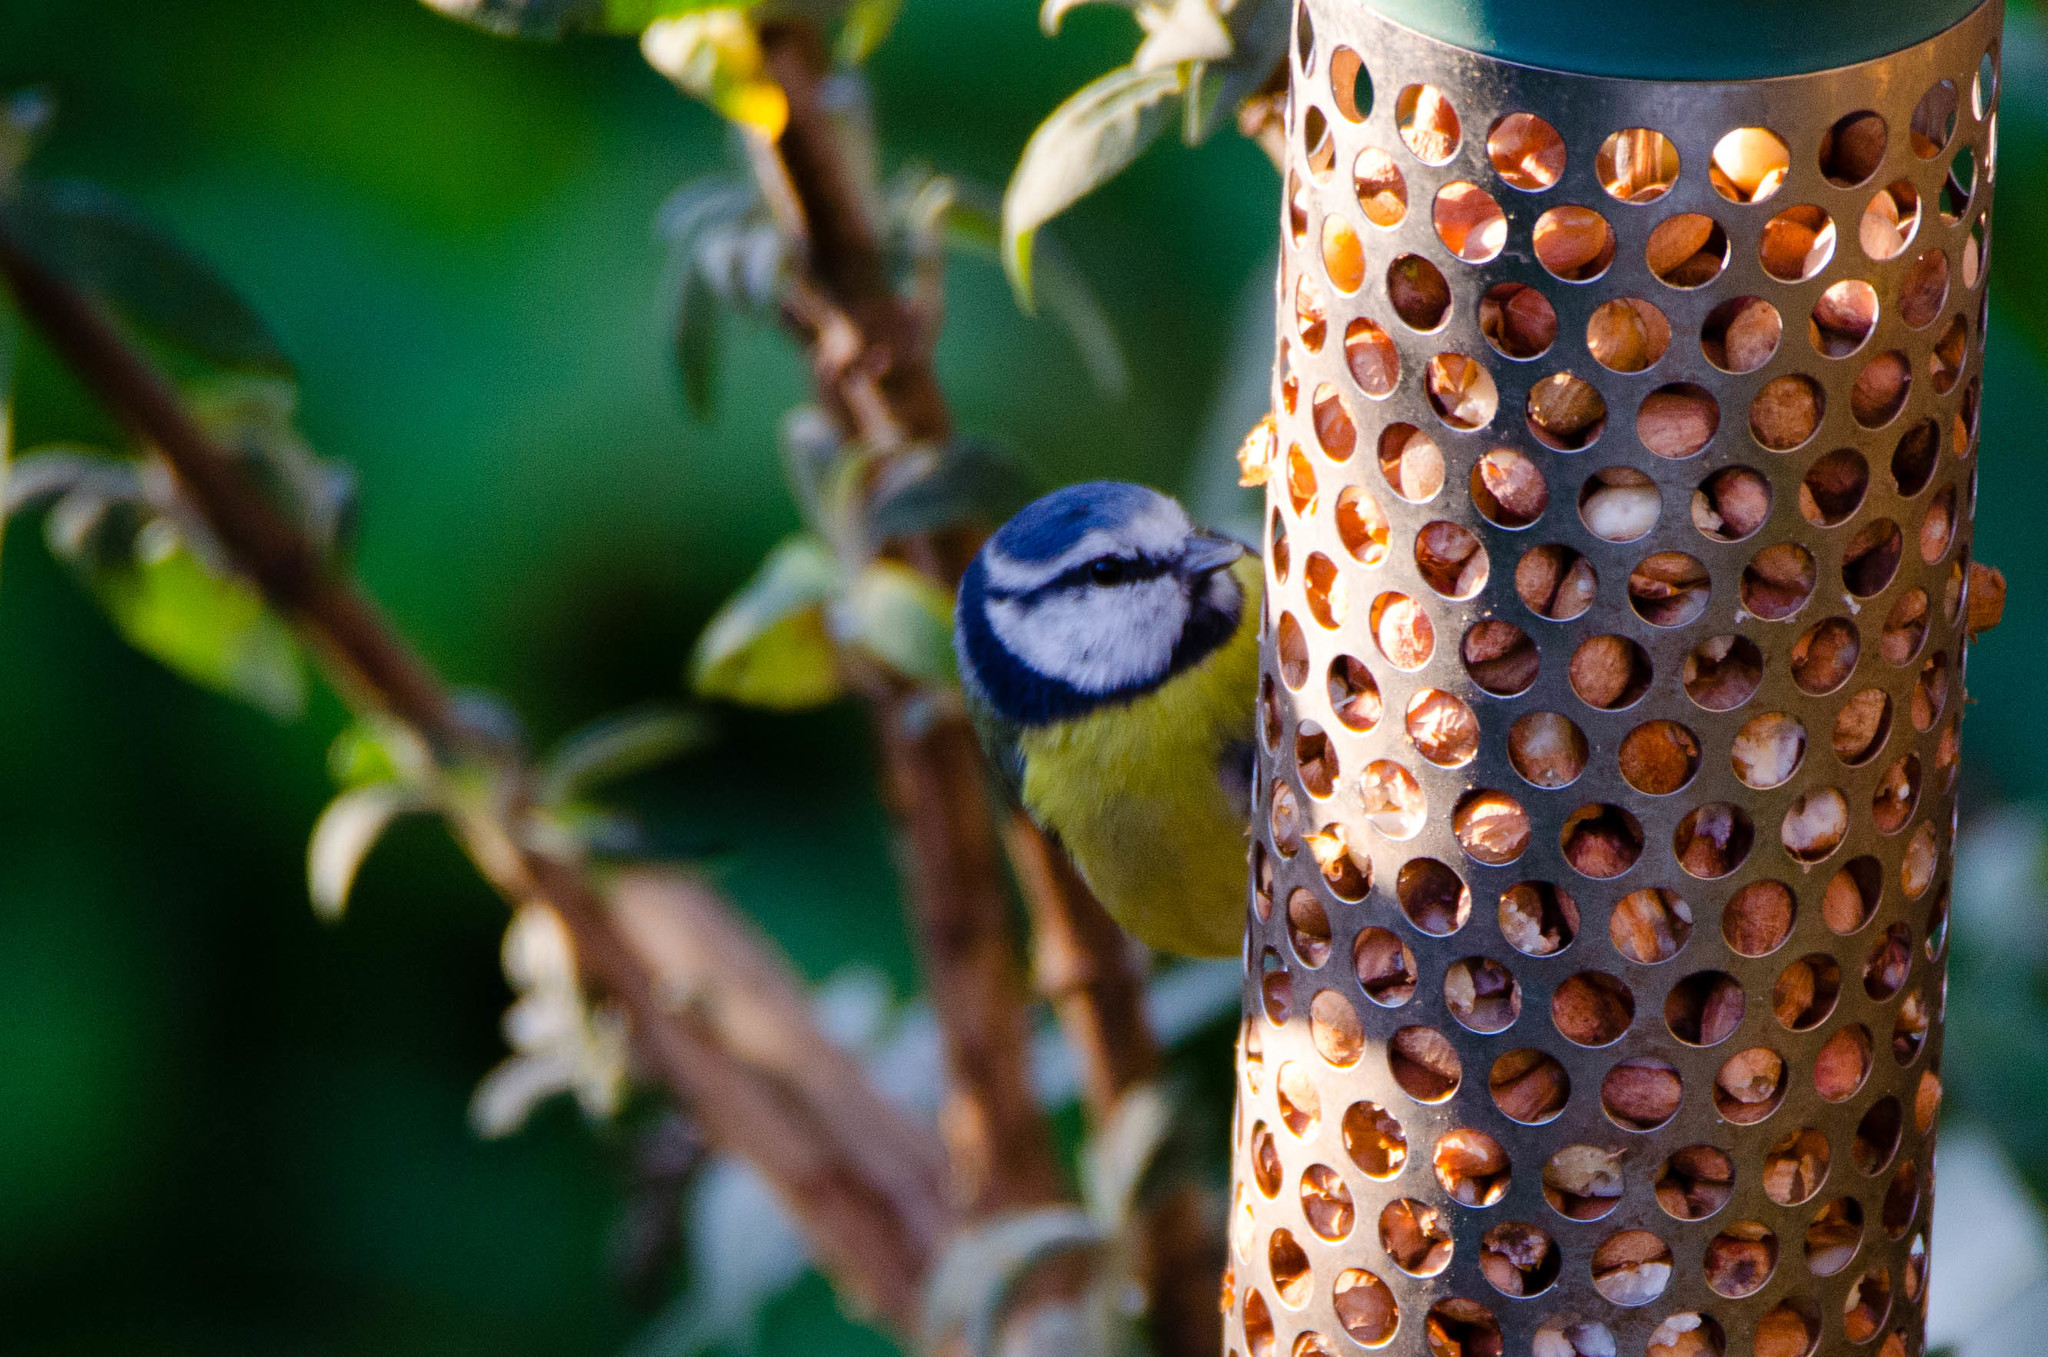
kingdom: Animalia
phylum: Chordata
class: Aves
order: Passeriformes
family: Paridae
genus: Cyanistes
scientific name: Cyanistes caeruleus
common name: Eurasian blue tit
